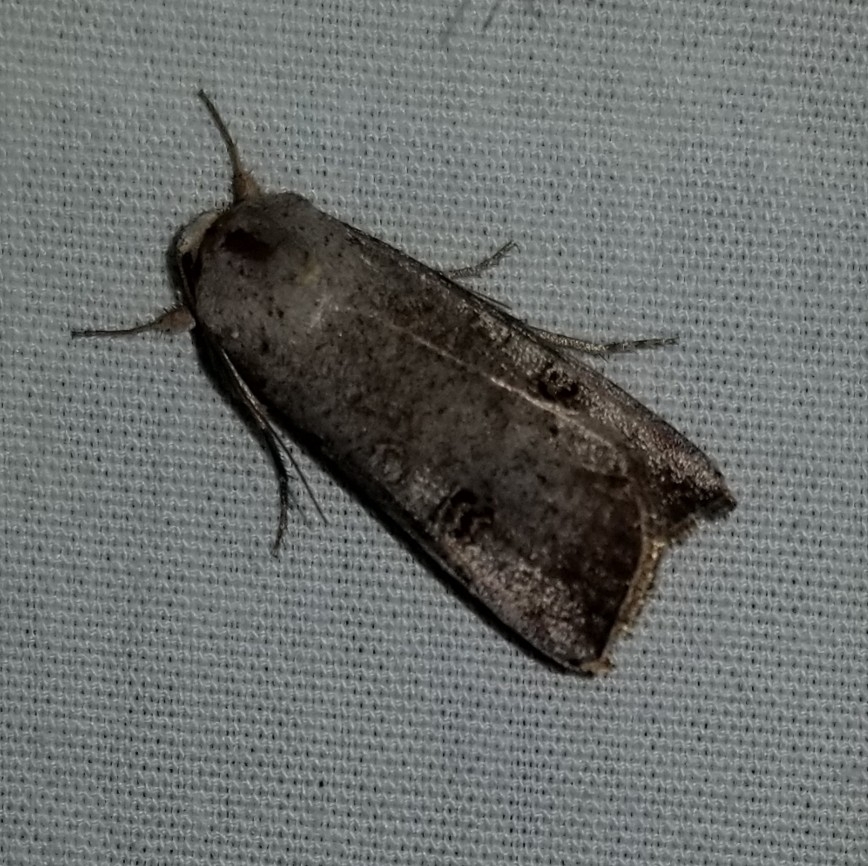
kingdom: Animalia
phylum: Arthropoda
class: Insecta
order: Lepidoptera
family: Noctuidae
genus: Anicla
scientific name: Anicla infecta
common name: Green cutworm
